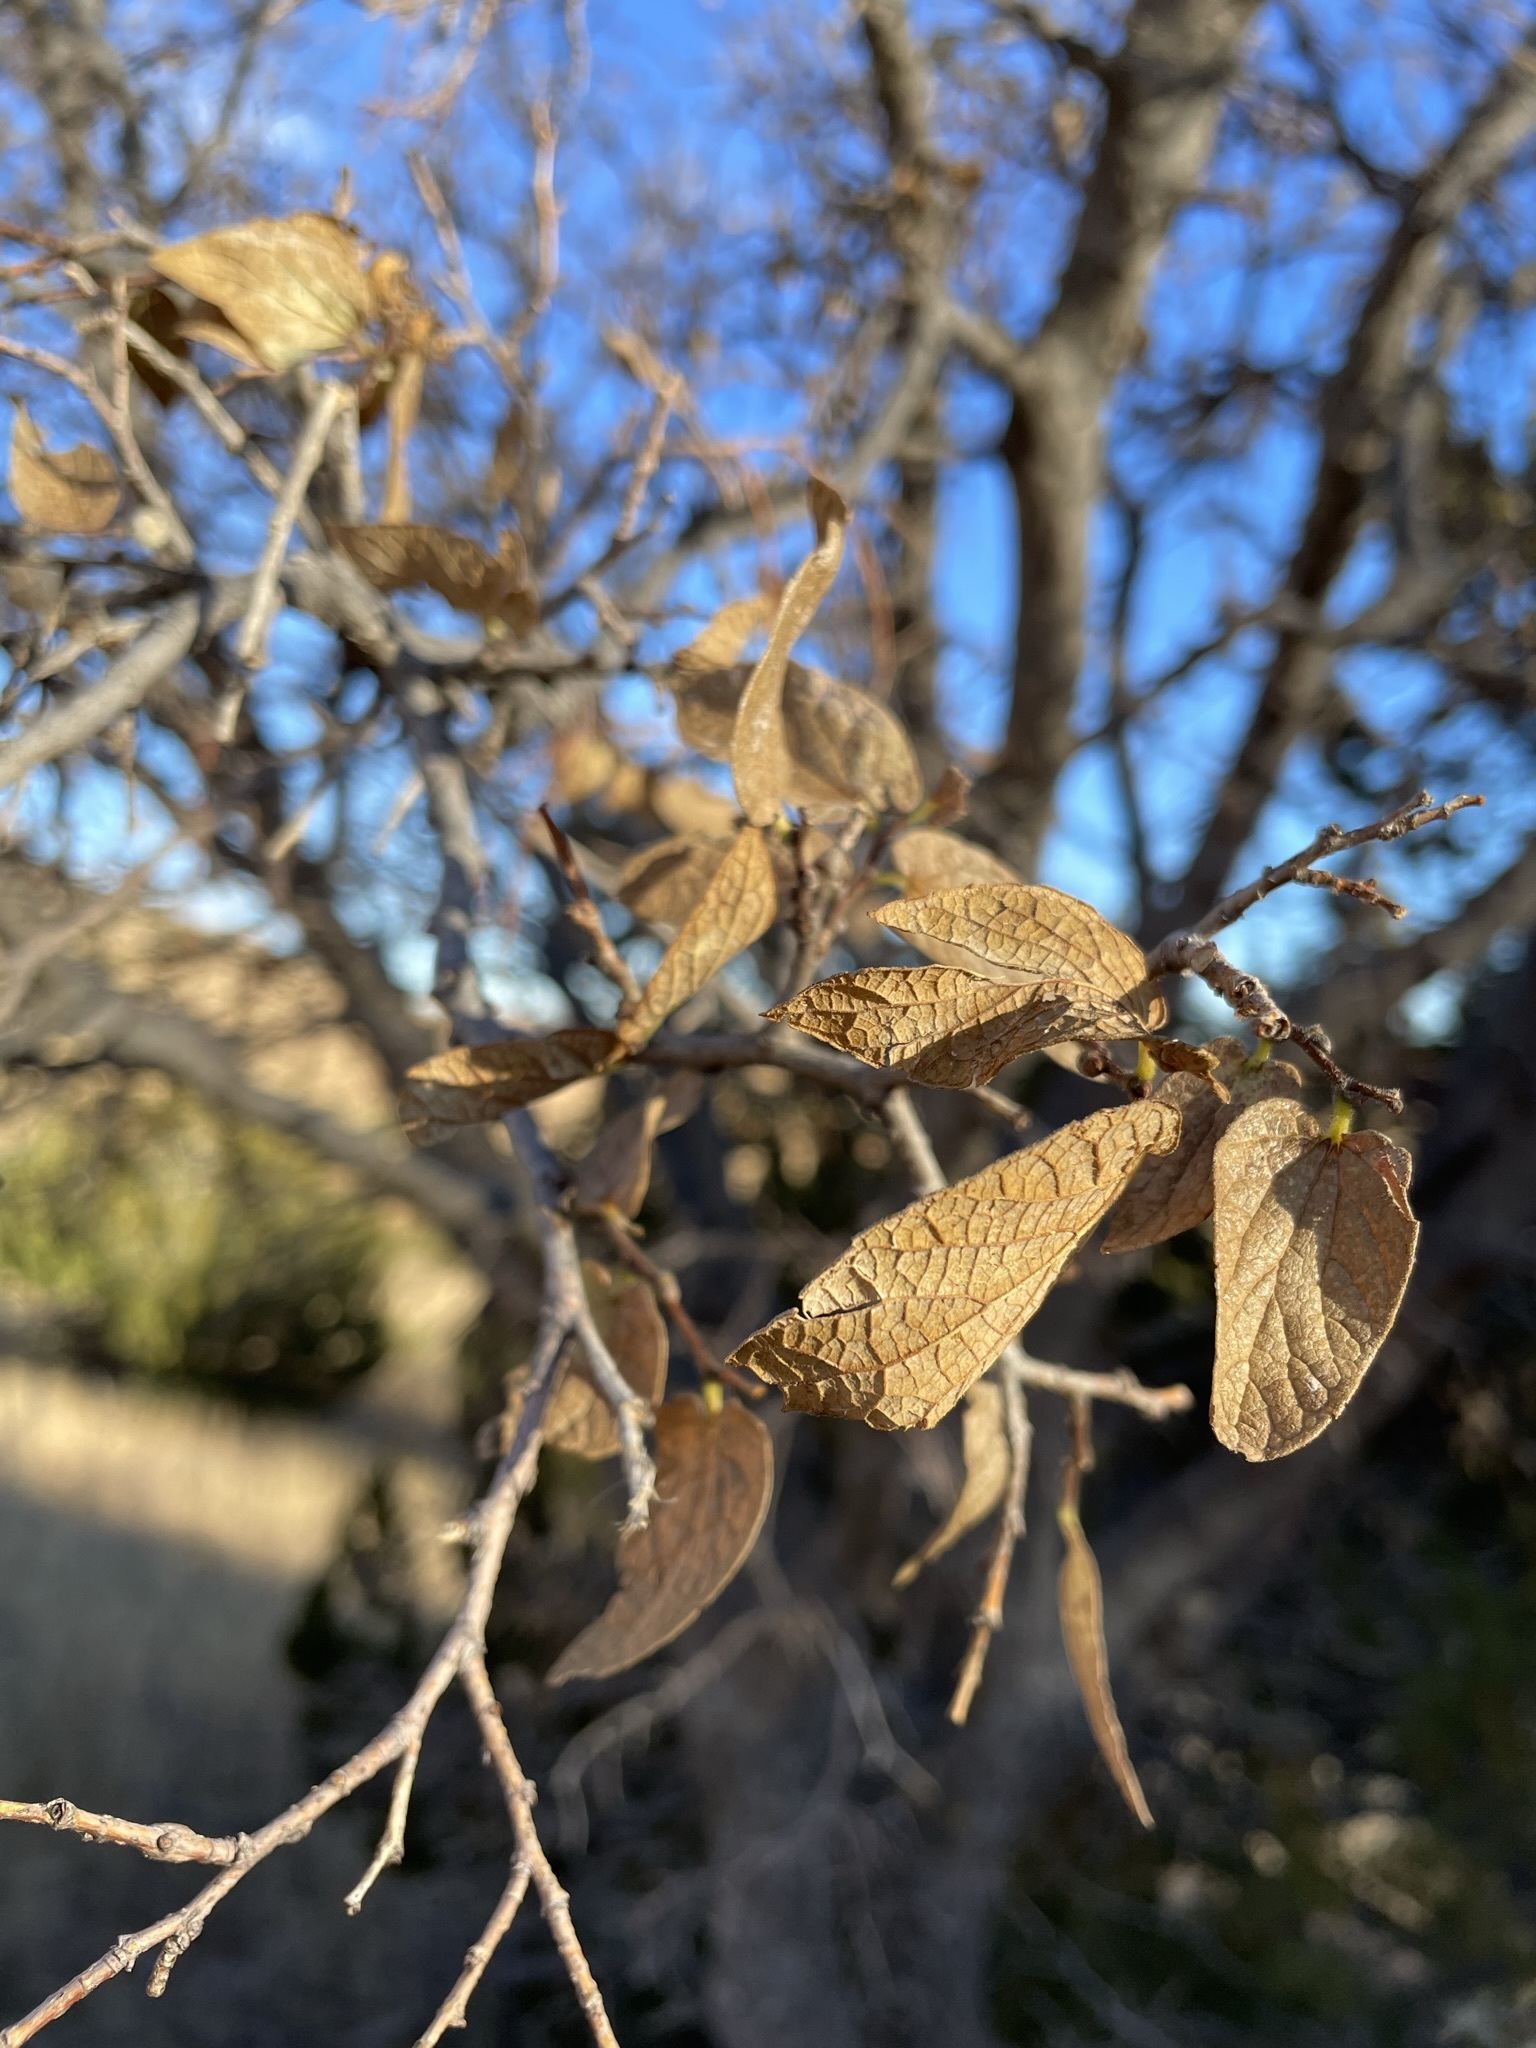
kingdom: Plantae
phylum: Tracheophyta
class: Magnoliopsida
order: Rosales
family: Cannabaceae
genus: Celtis
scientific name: Celtis reticulata
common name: Netleaf hackberry
